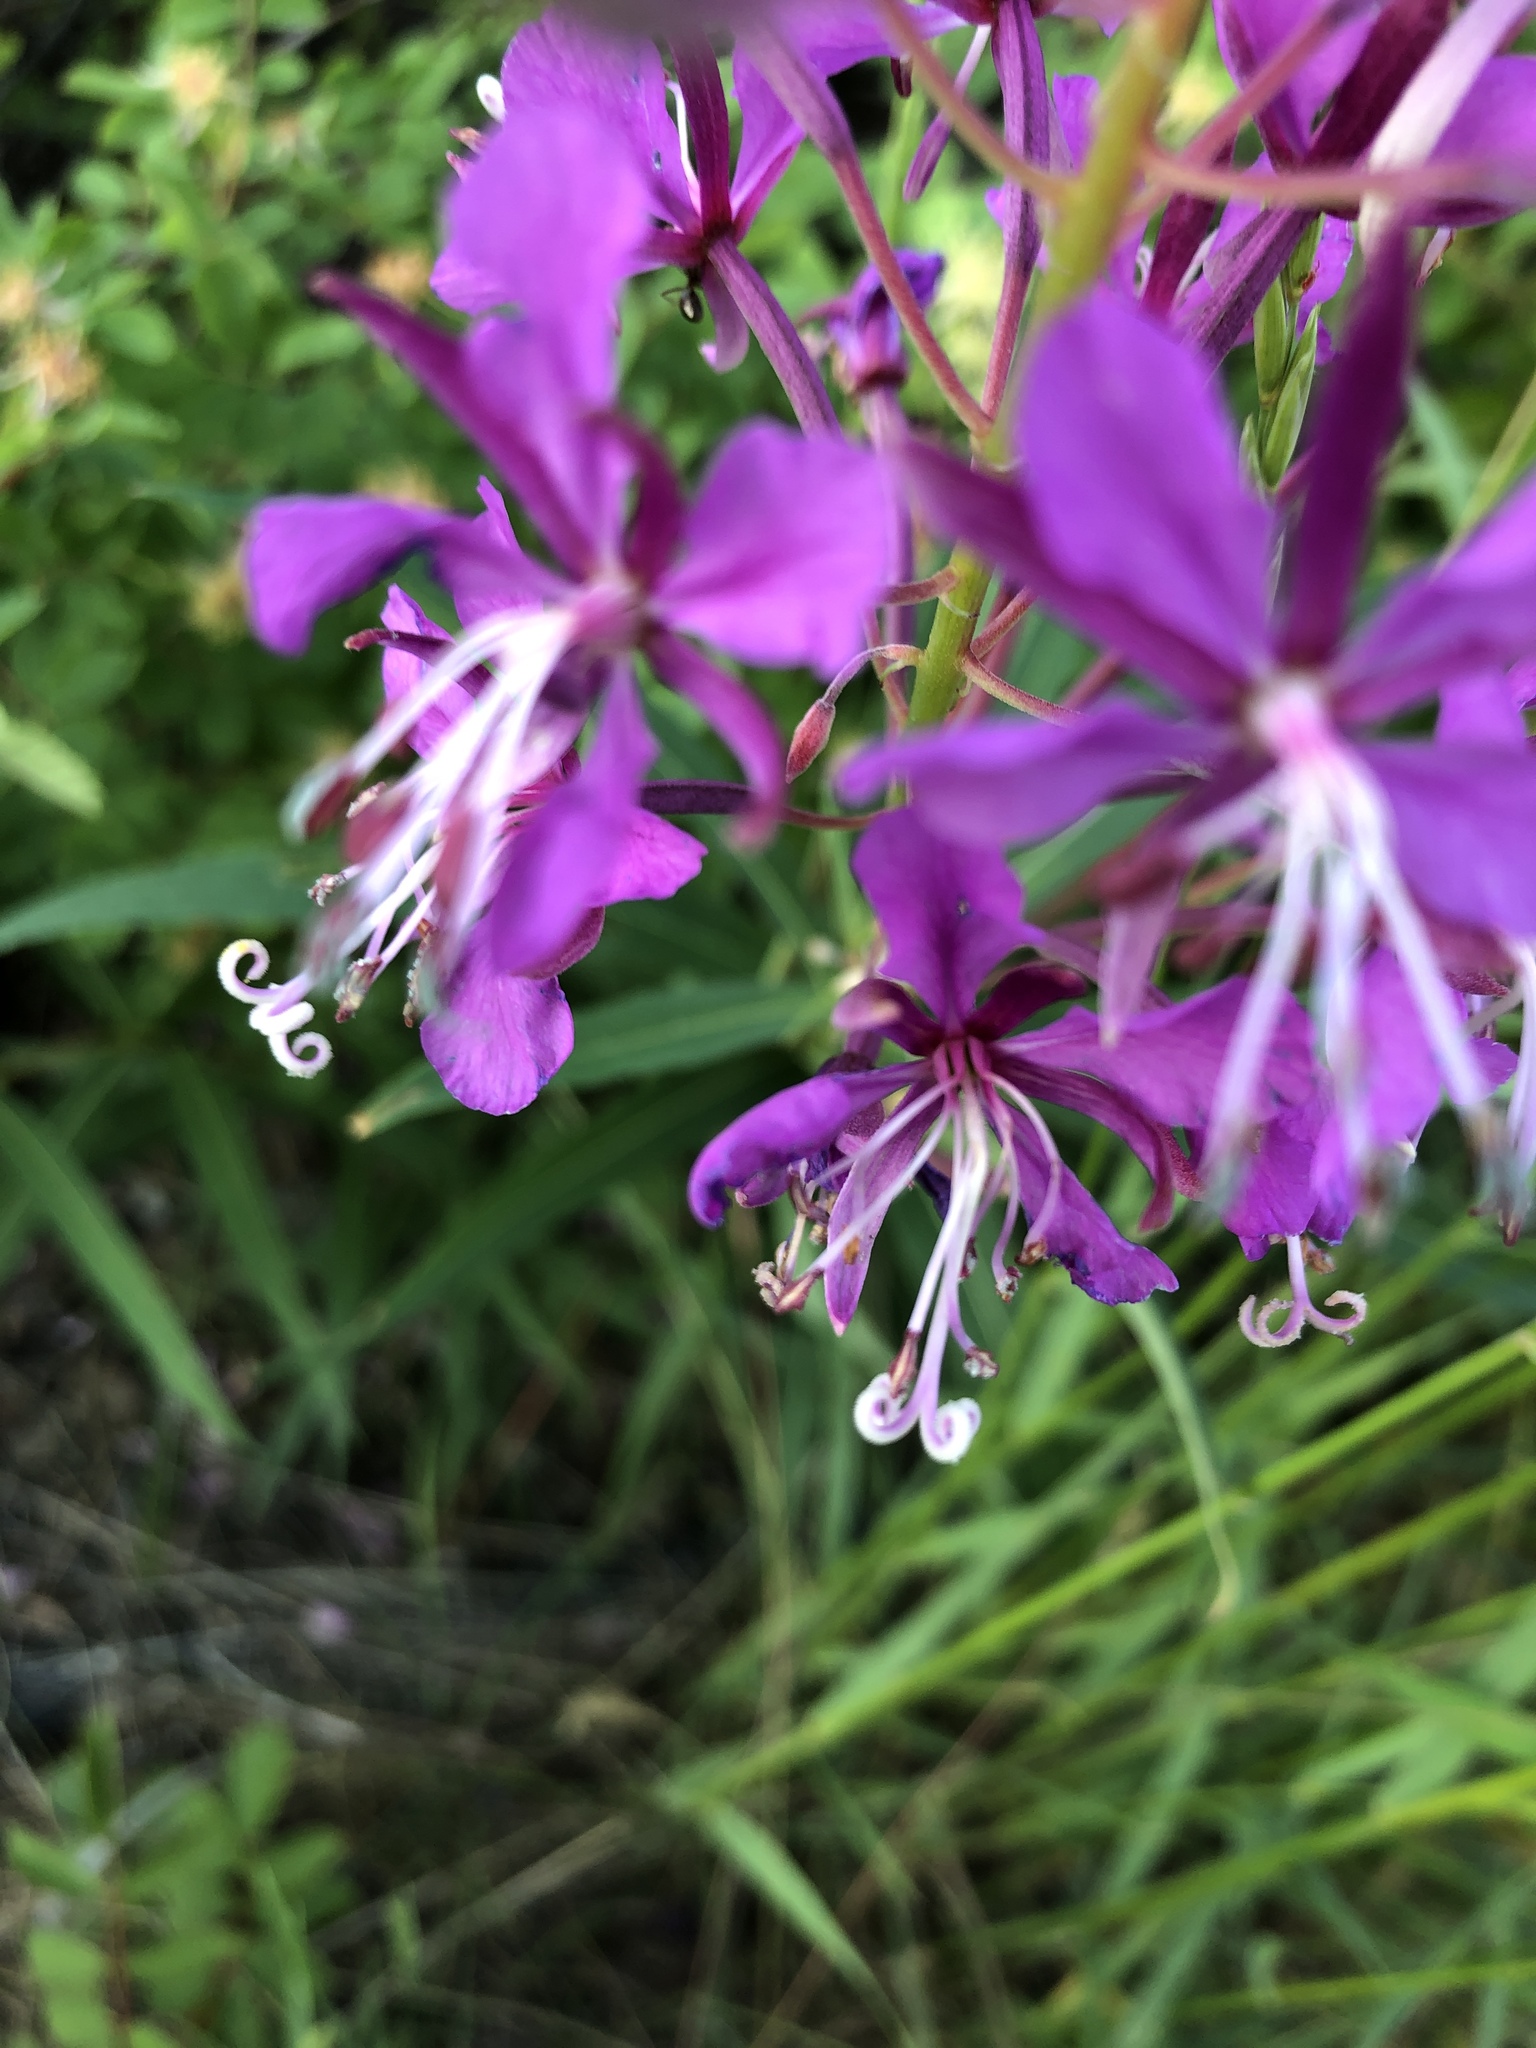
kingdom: Plantae
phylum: Tracheophyta
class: Magnoliopsida
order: Myrtales
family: Onagraceae
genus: Chamaenerion
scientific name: Chamaenerion angustifolium
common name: Fireweed
